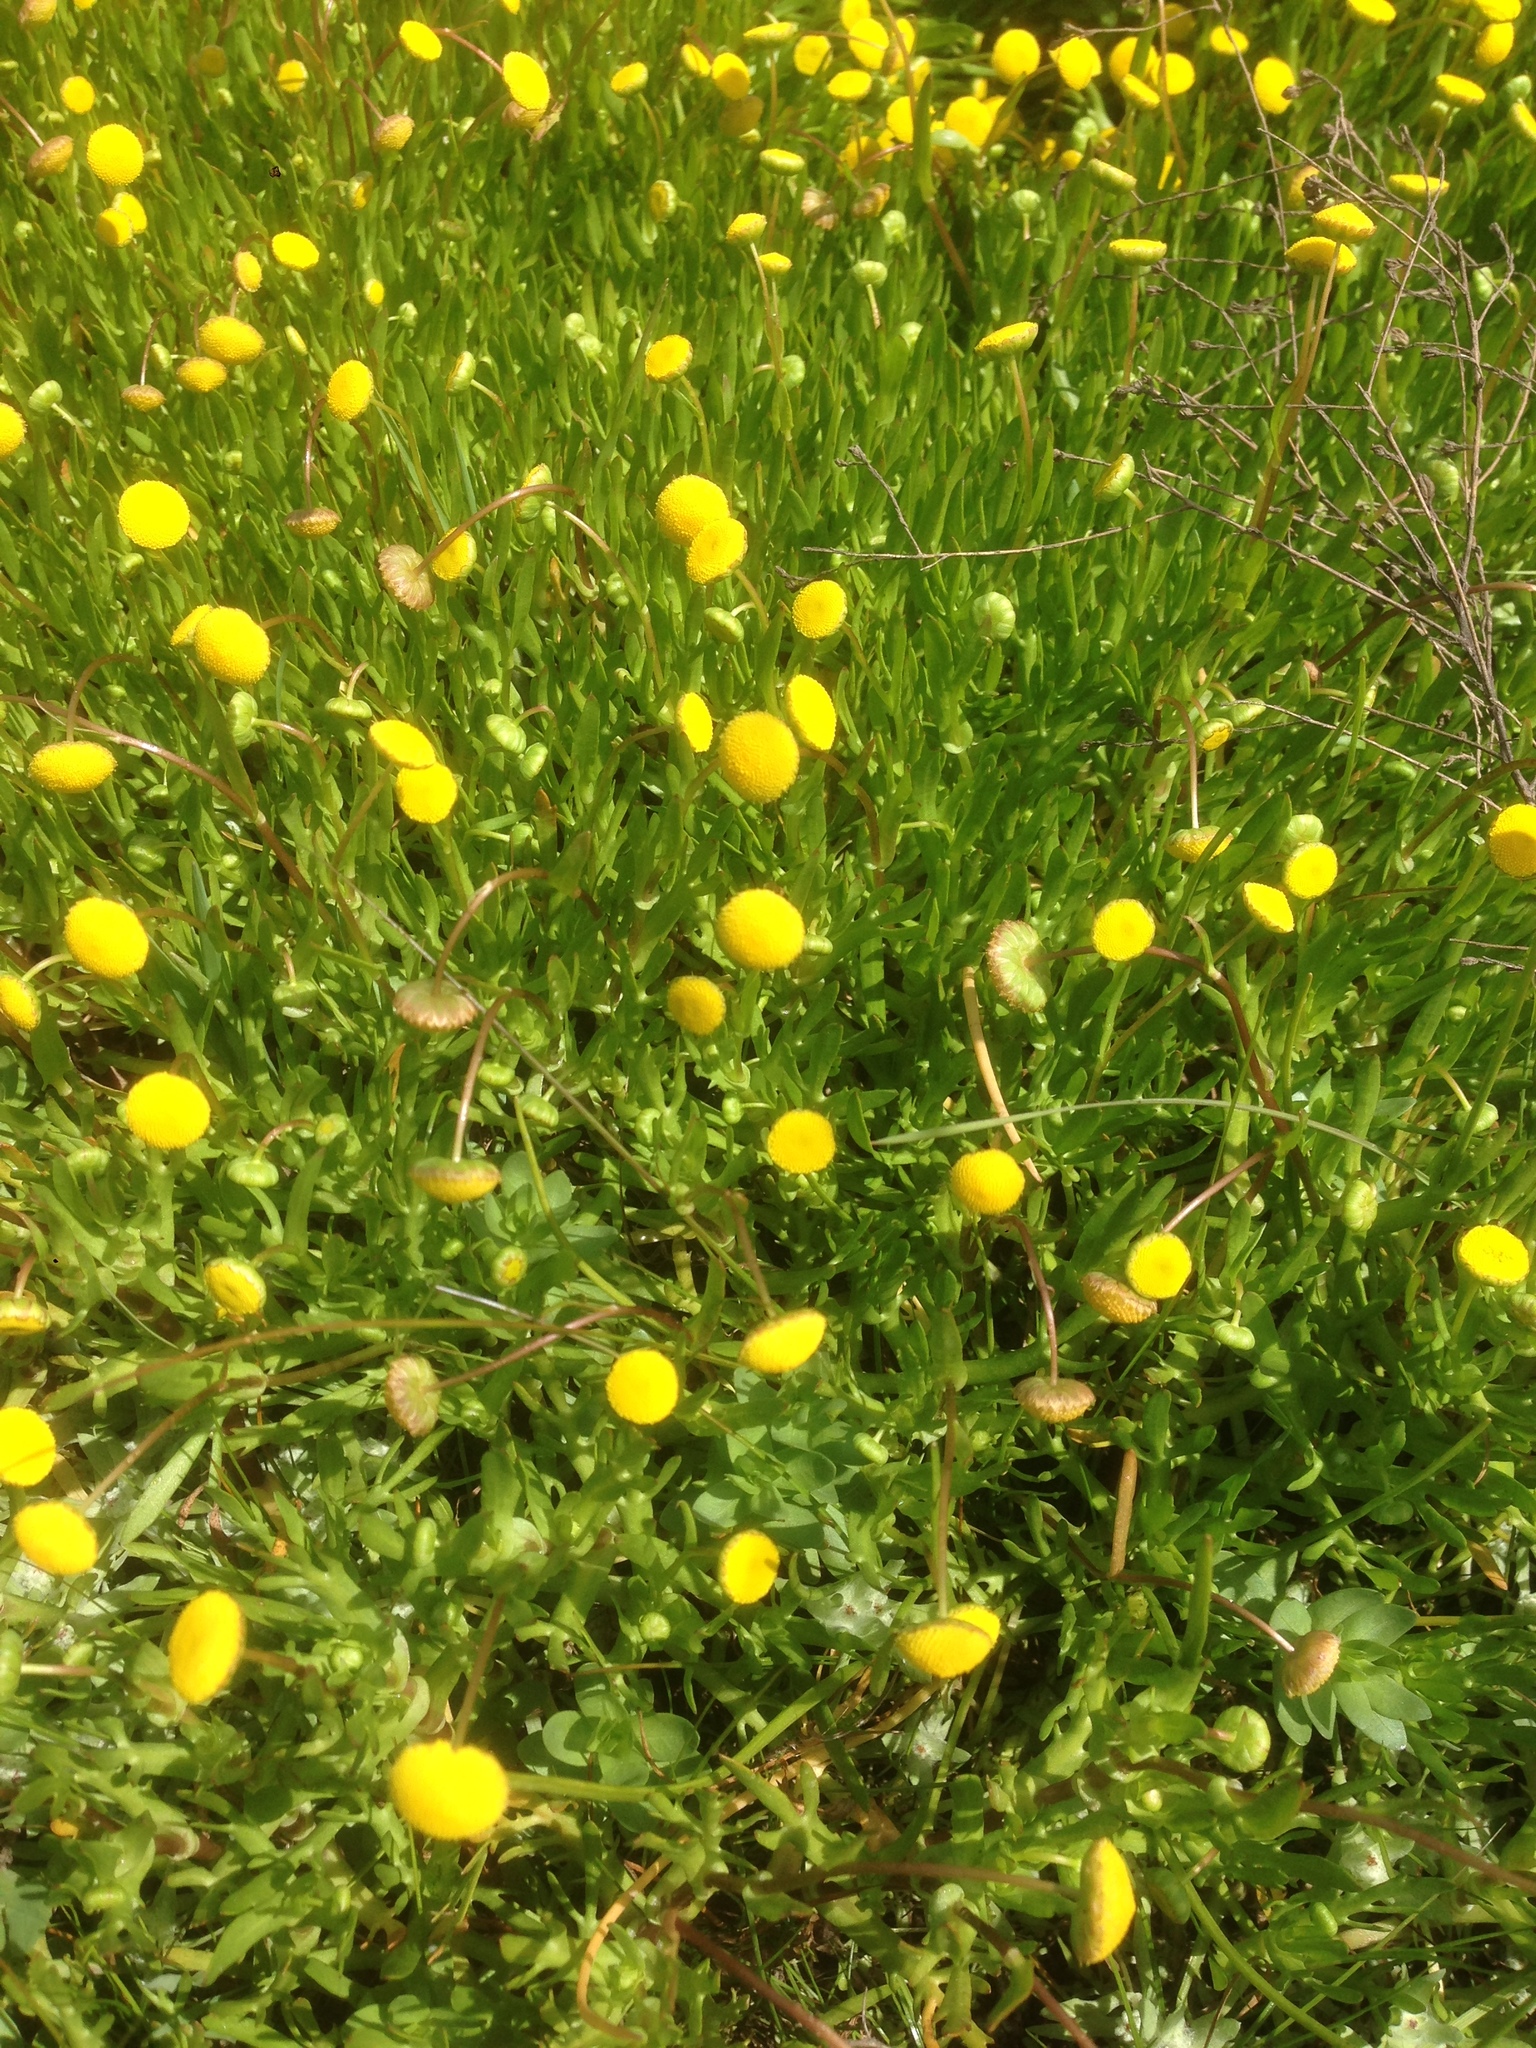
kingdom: Plantae
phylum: Tracheophyta
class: Magnoliopsida
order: Asterales
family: Asteraceae
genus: Cotula
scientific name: Cotula coronopifolia
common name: Buttonweed
